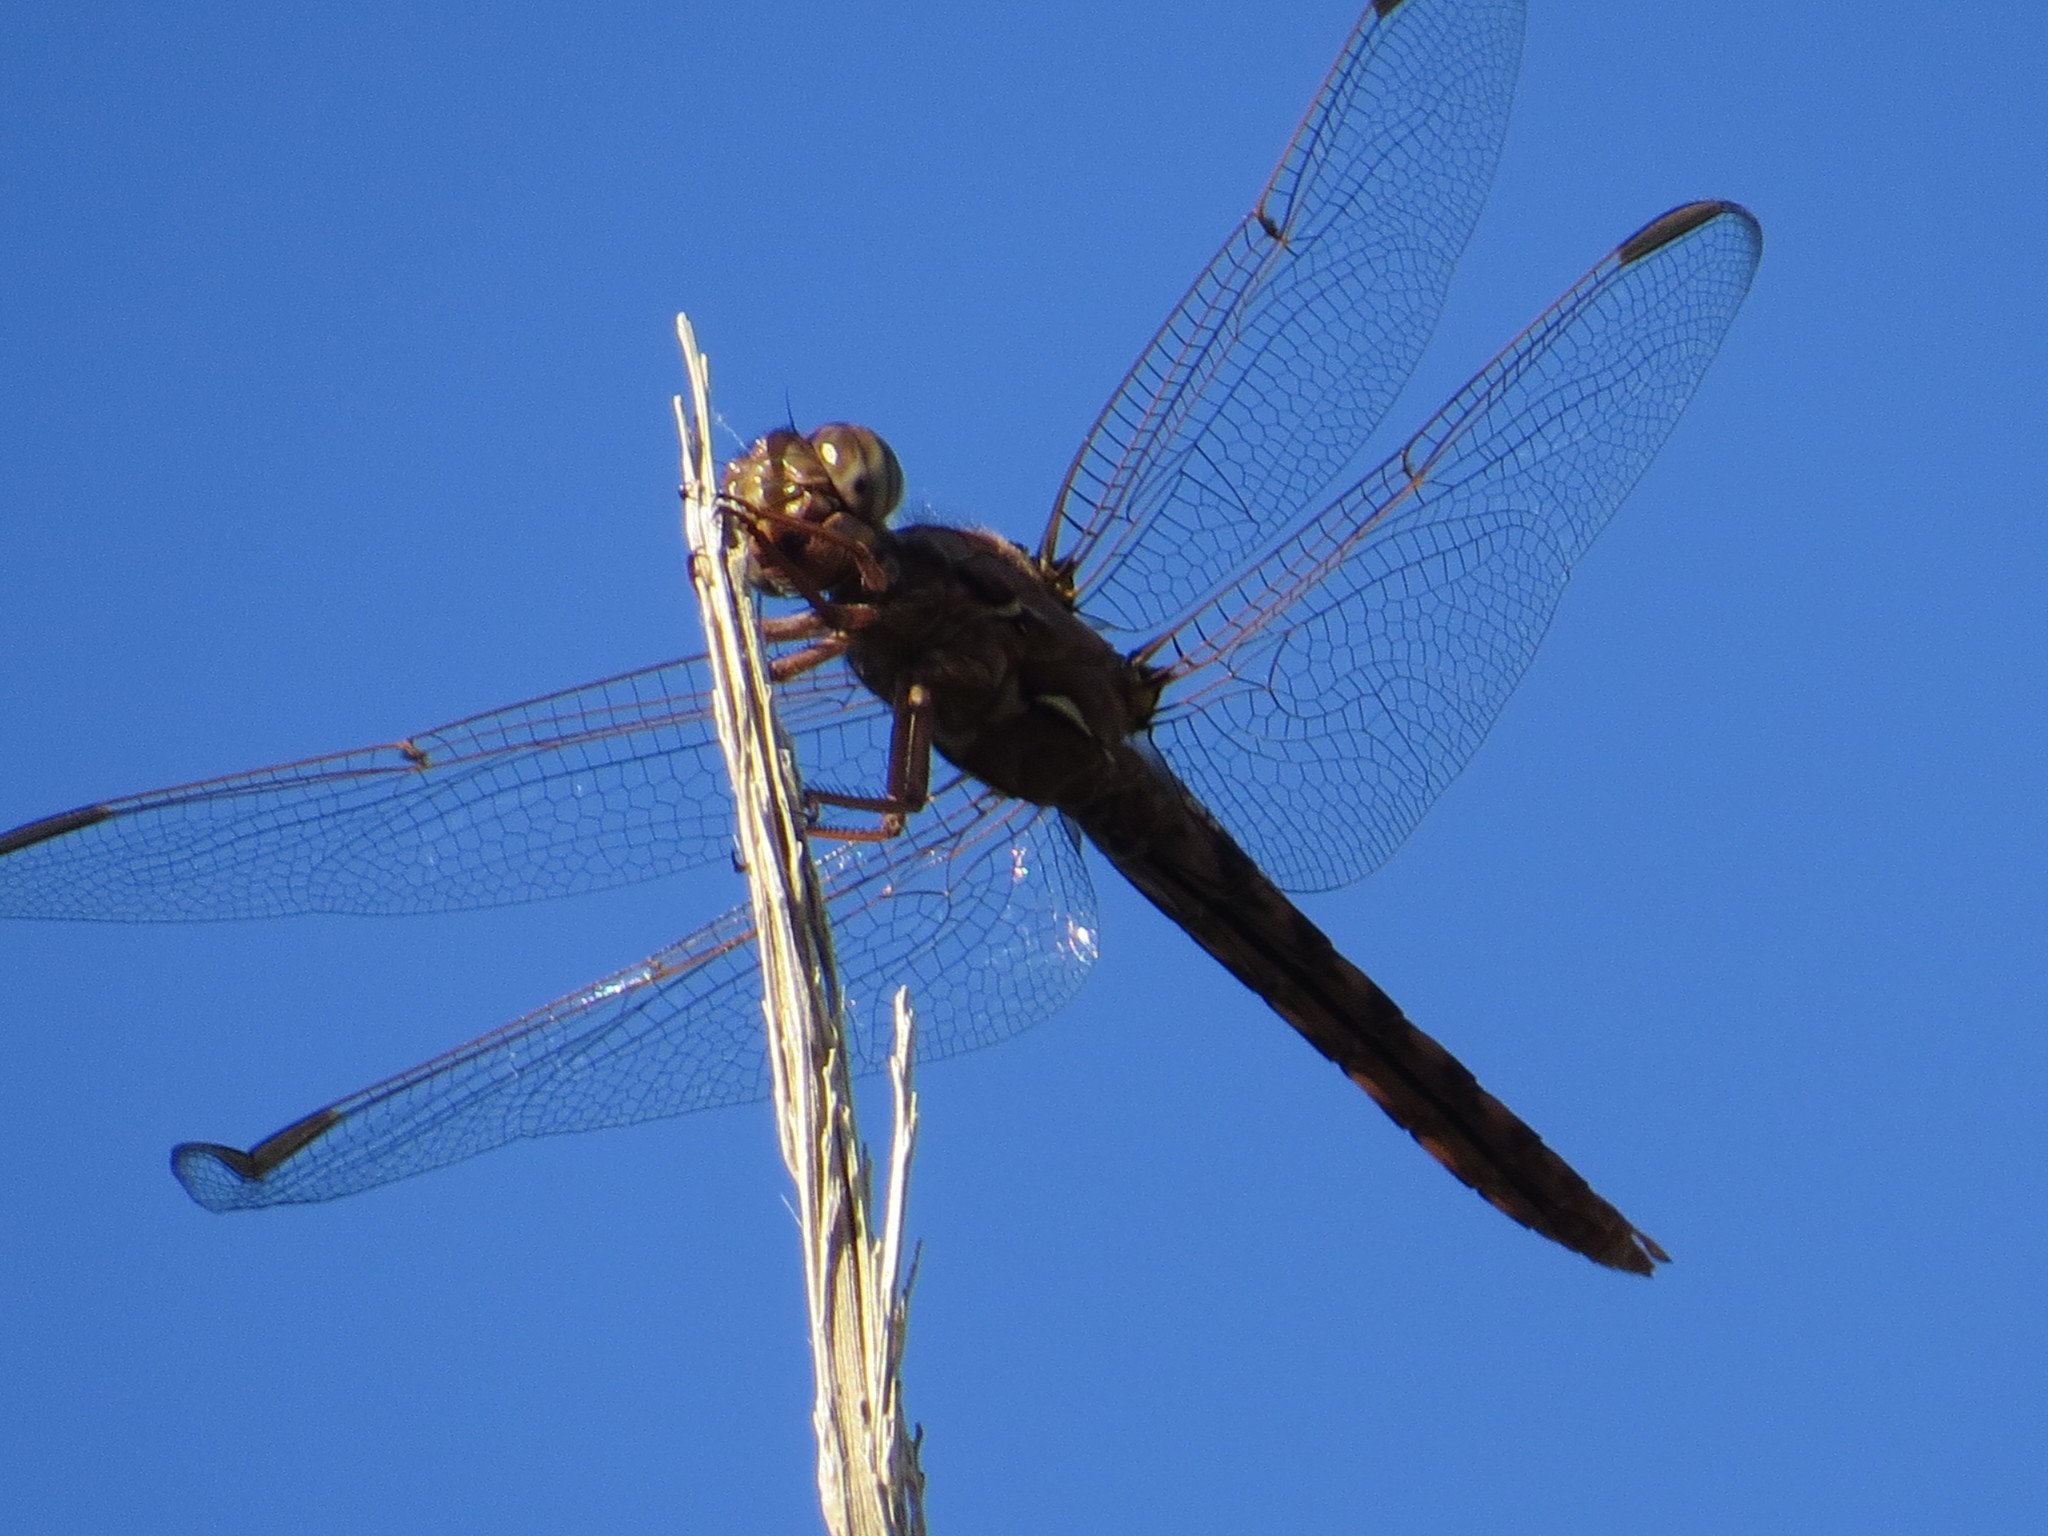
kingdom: Animalia
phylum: Arthropoda
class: Insecta
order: Odonata
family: Libellulidae
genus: Orthemis
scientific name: Orthemis nodiplaga
